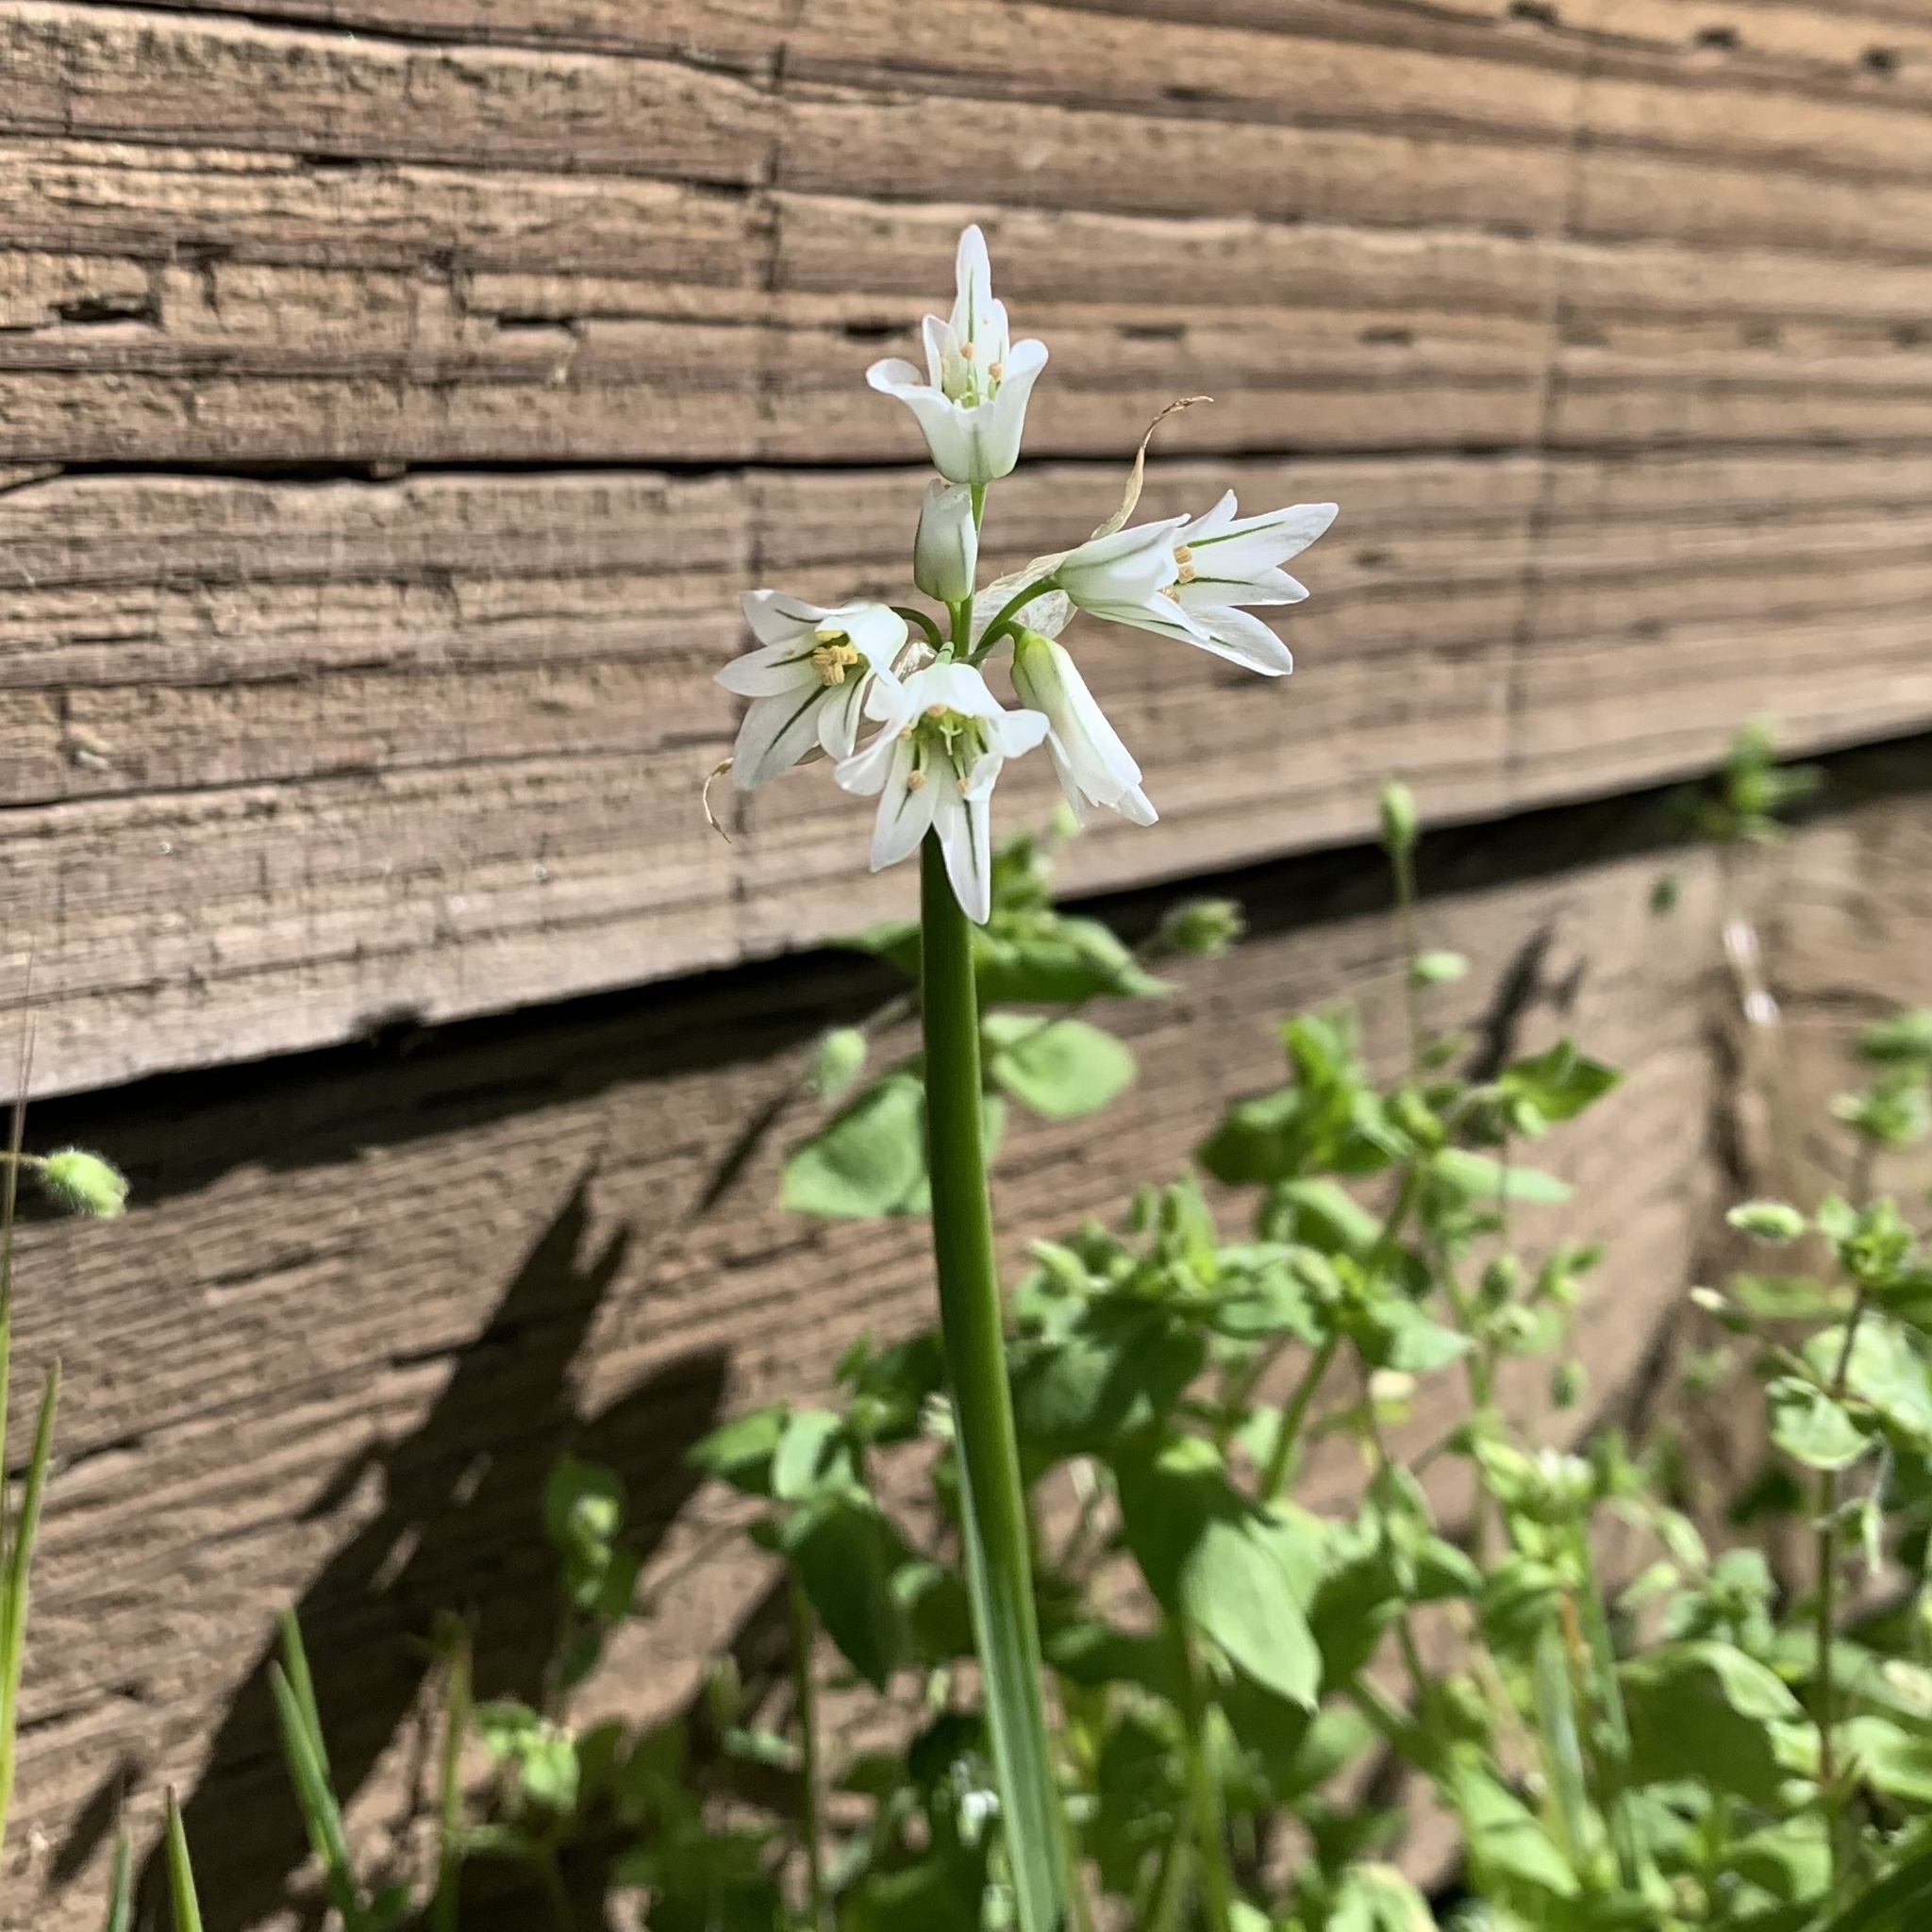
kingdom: Plantae
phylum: Tracheophyta
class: Liliopsida
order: Asparagales
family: Amaryllidaceae
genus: Allium
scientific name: Allium triquetrum
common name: Three-cornered garlic
